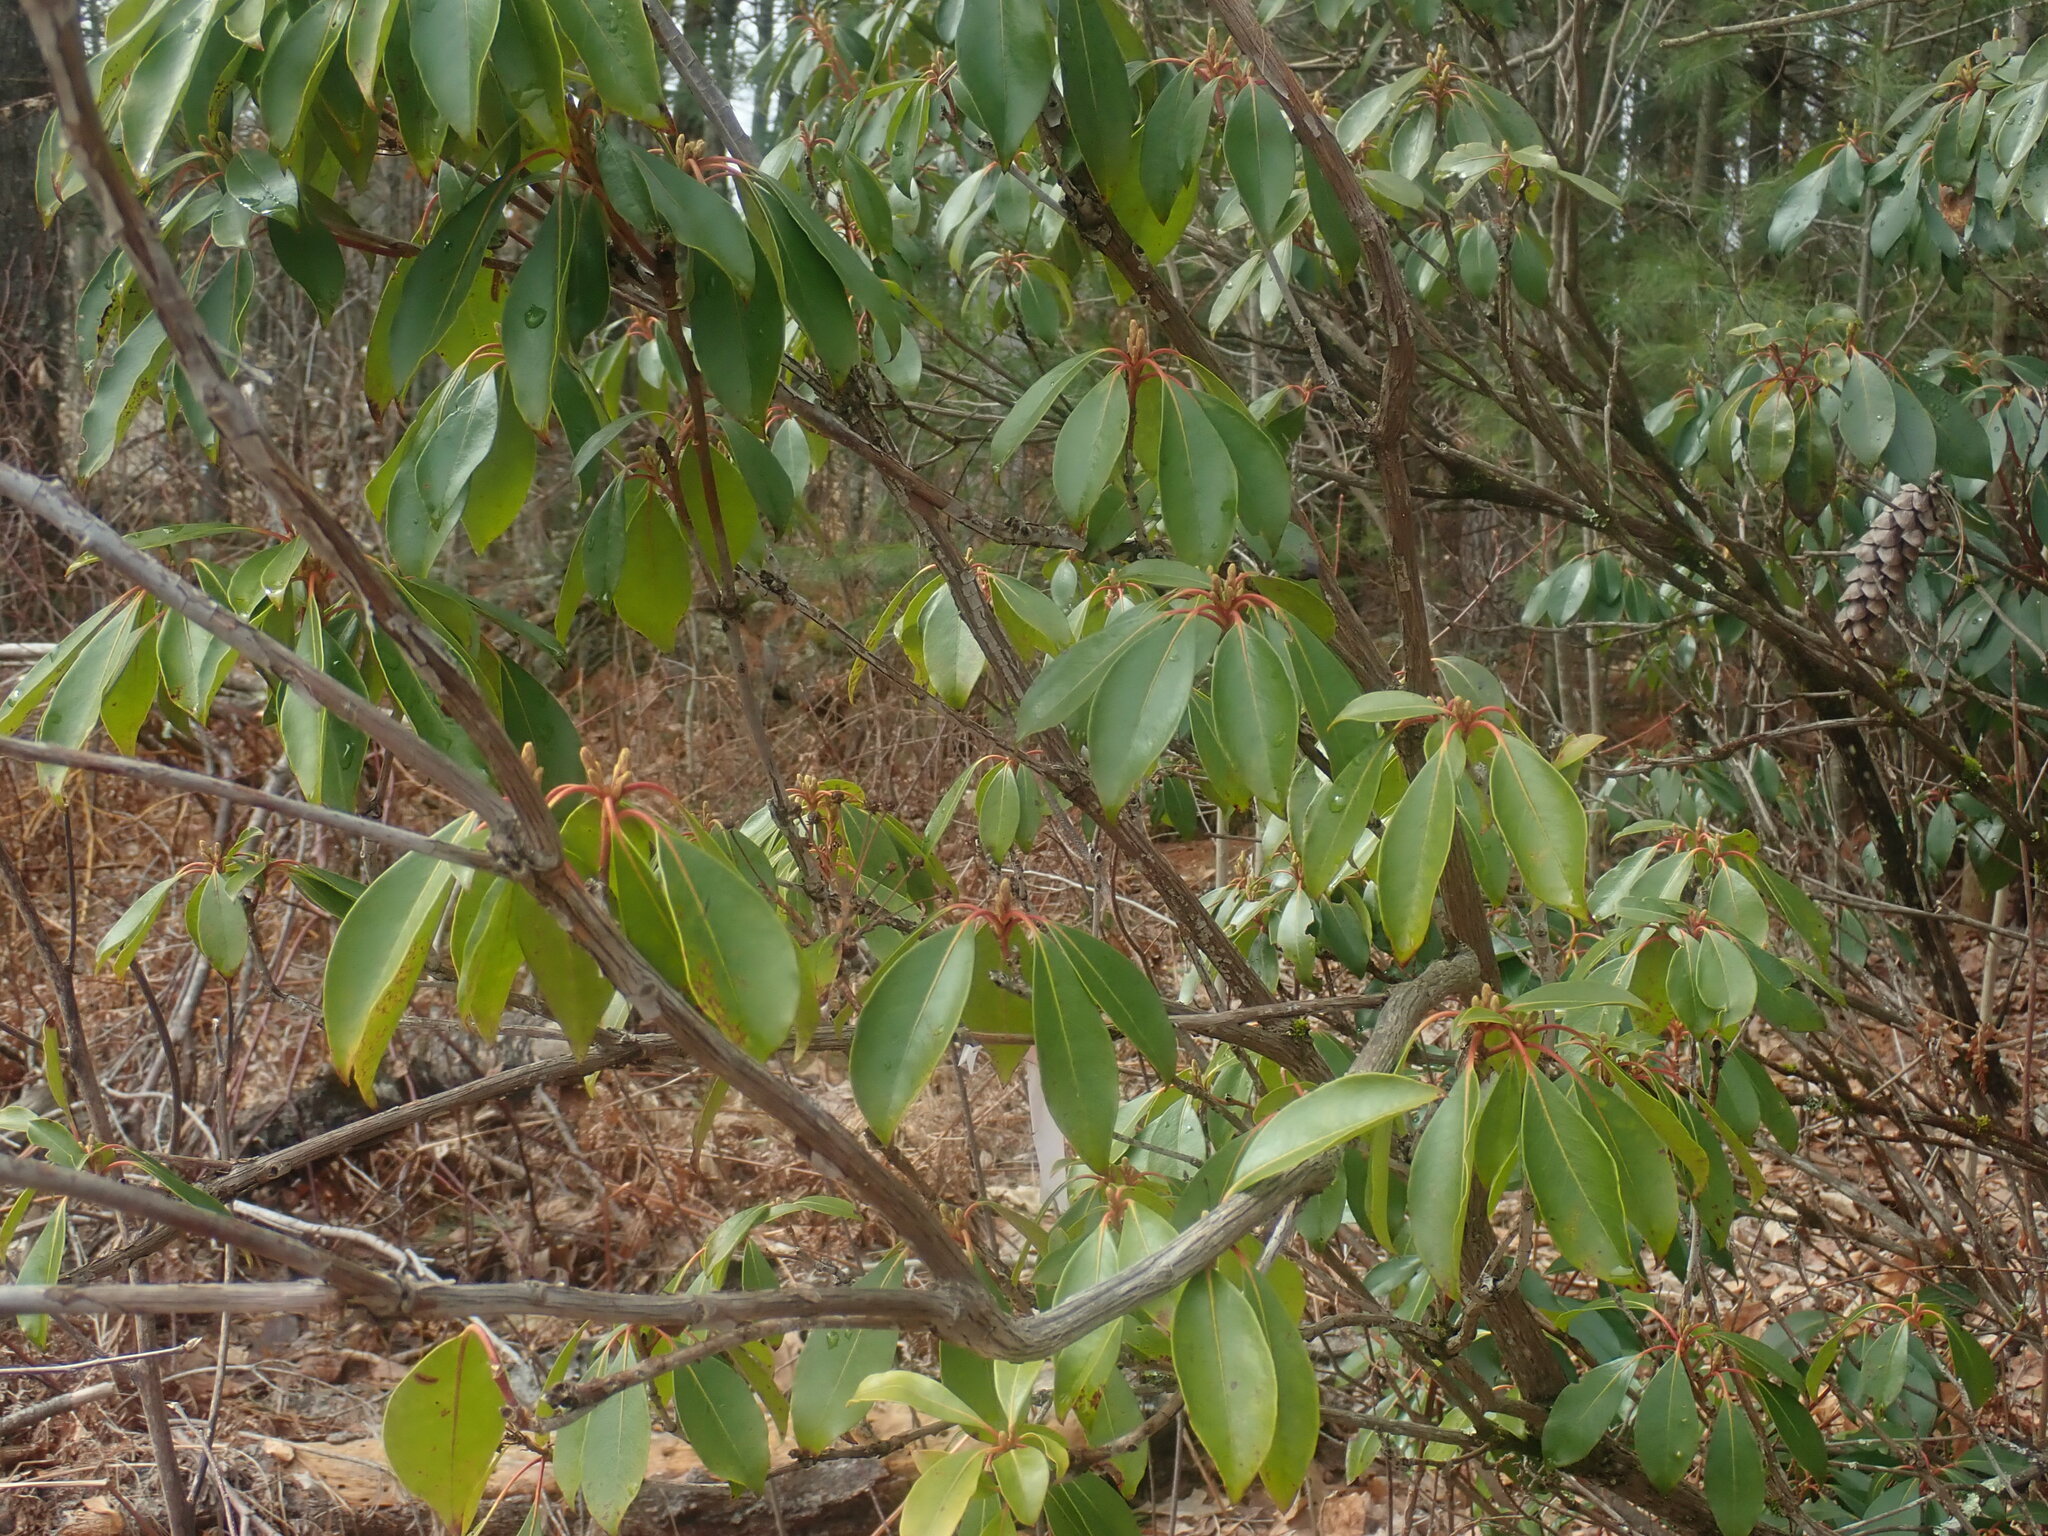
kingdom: Plantae
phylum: Tracheophyta
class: Magnoliopsida
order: Ericales
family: Ericaceae
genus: Kalmia
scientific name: Kalmia latifolia
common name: Mountain-laurel
